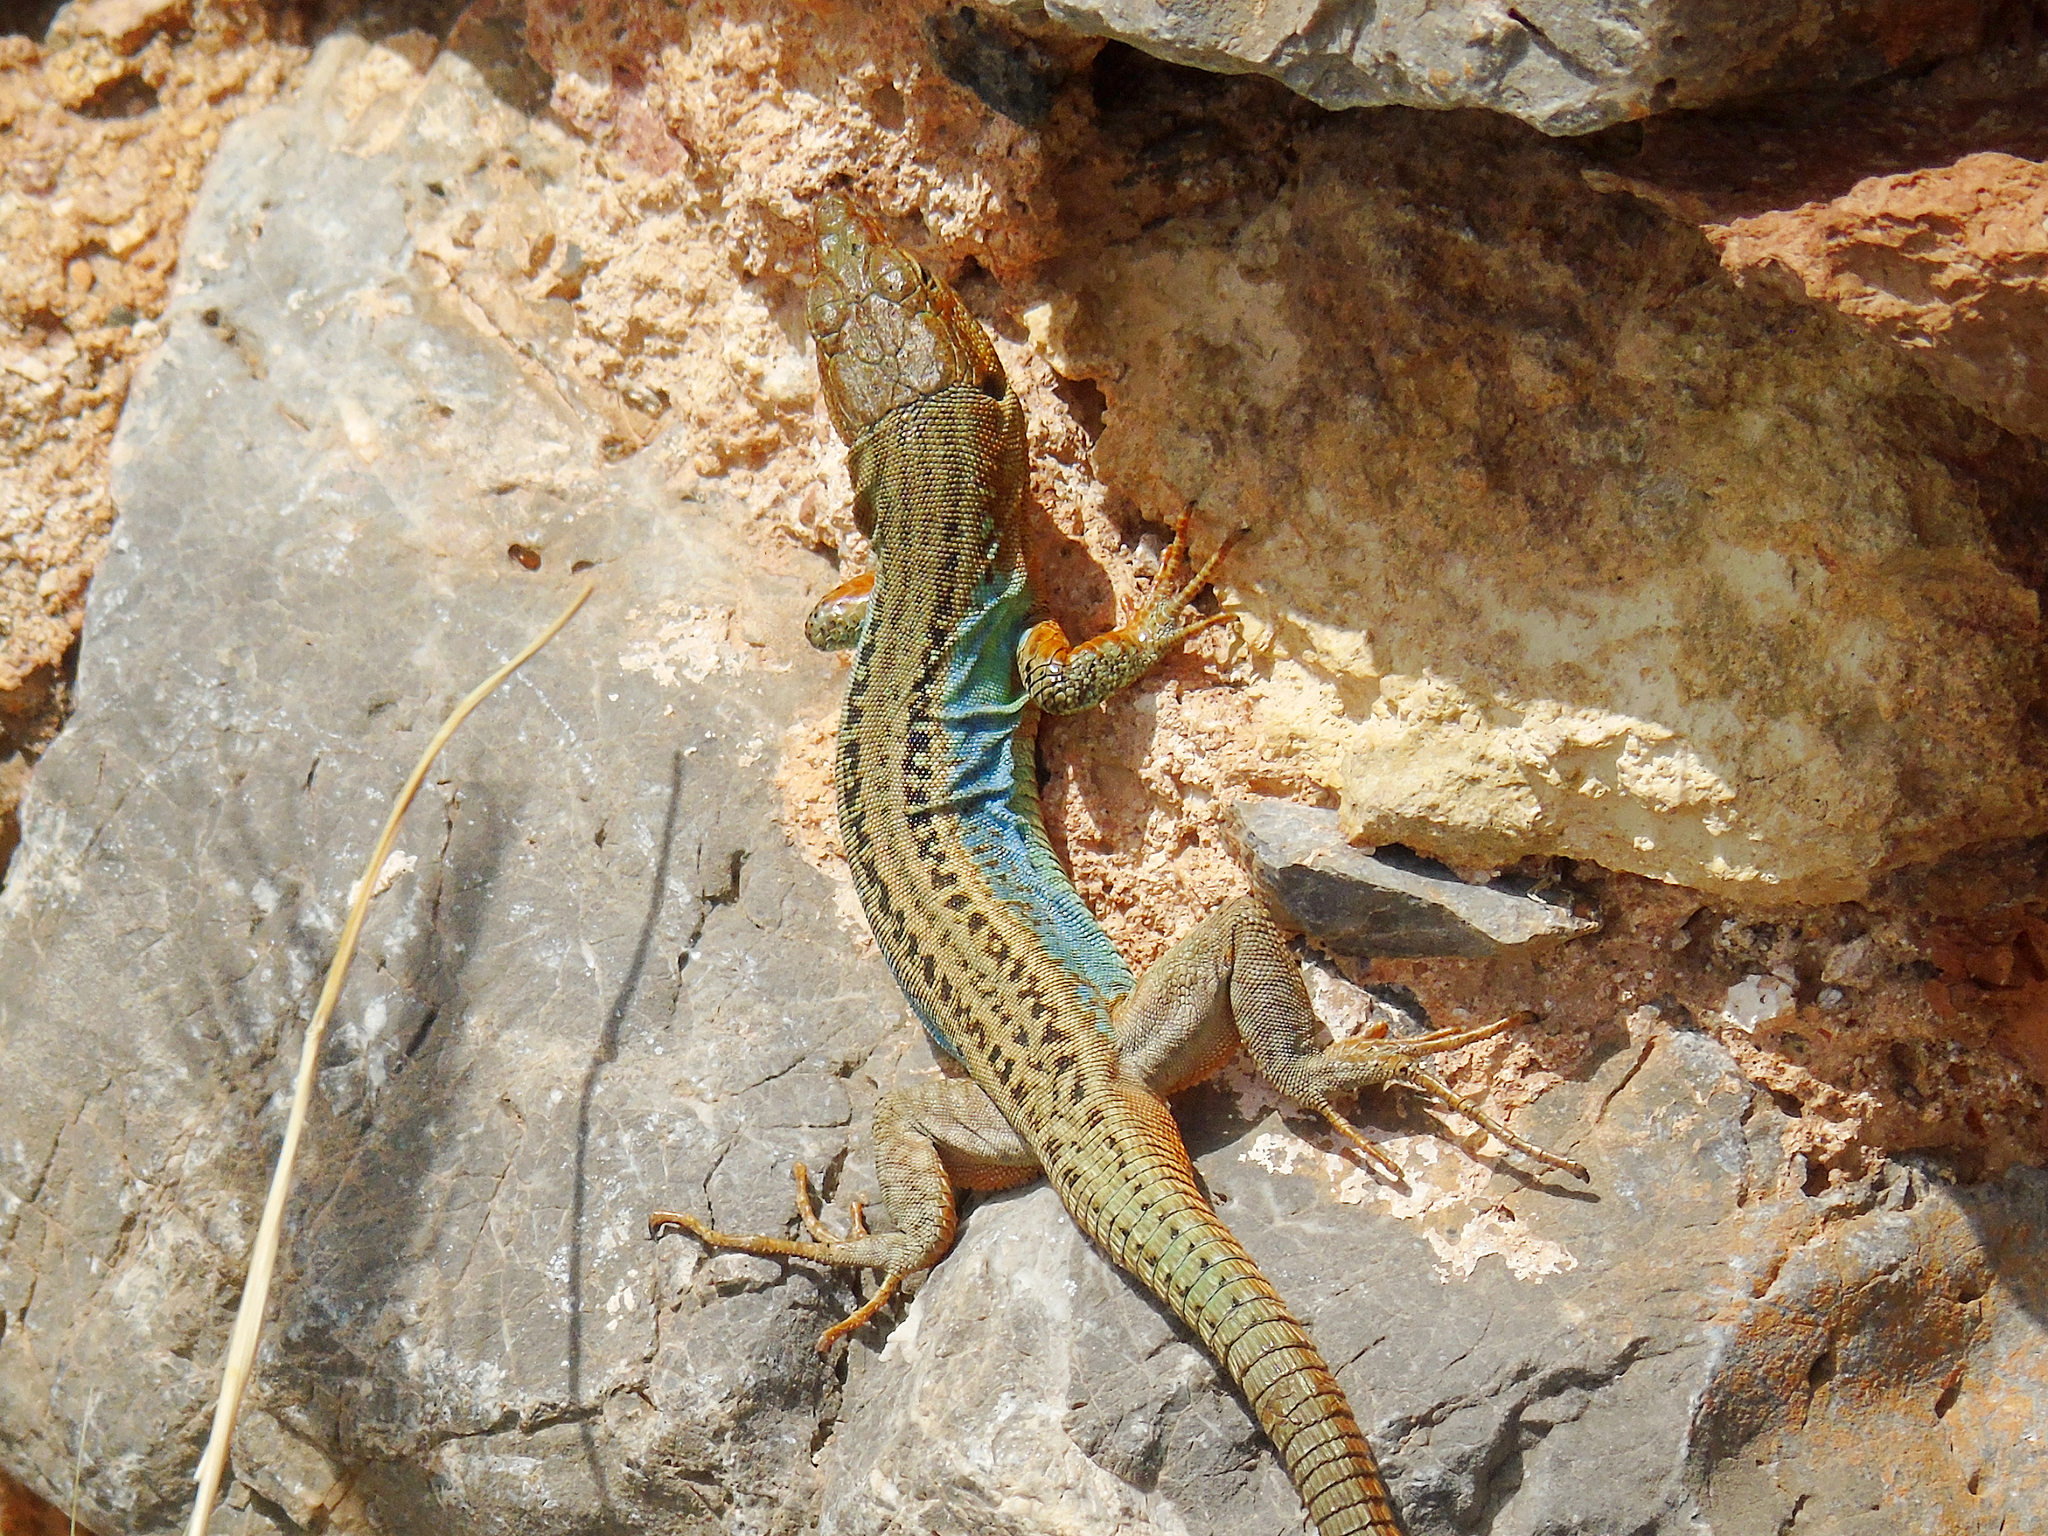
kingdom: Animalia
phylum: Chordata
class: Squamata
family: Lacertidae
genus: Podarcis
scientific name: Podarcis peloponnesiacus
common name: Peloponnese wall lizard
